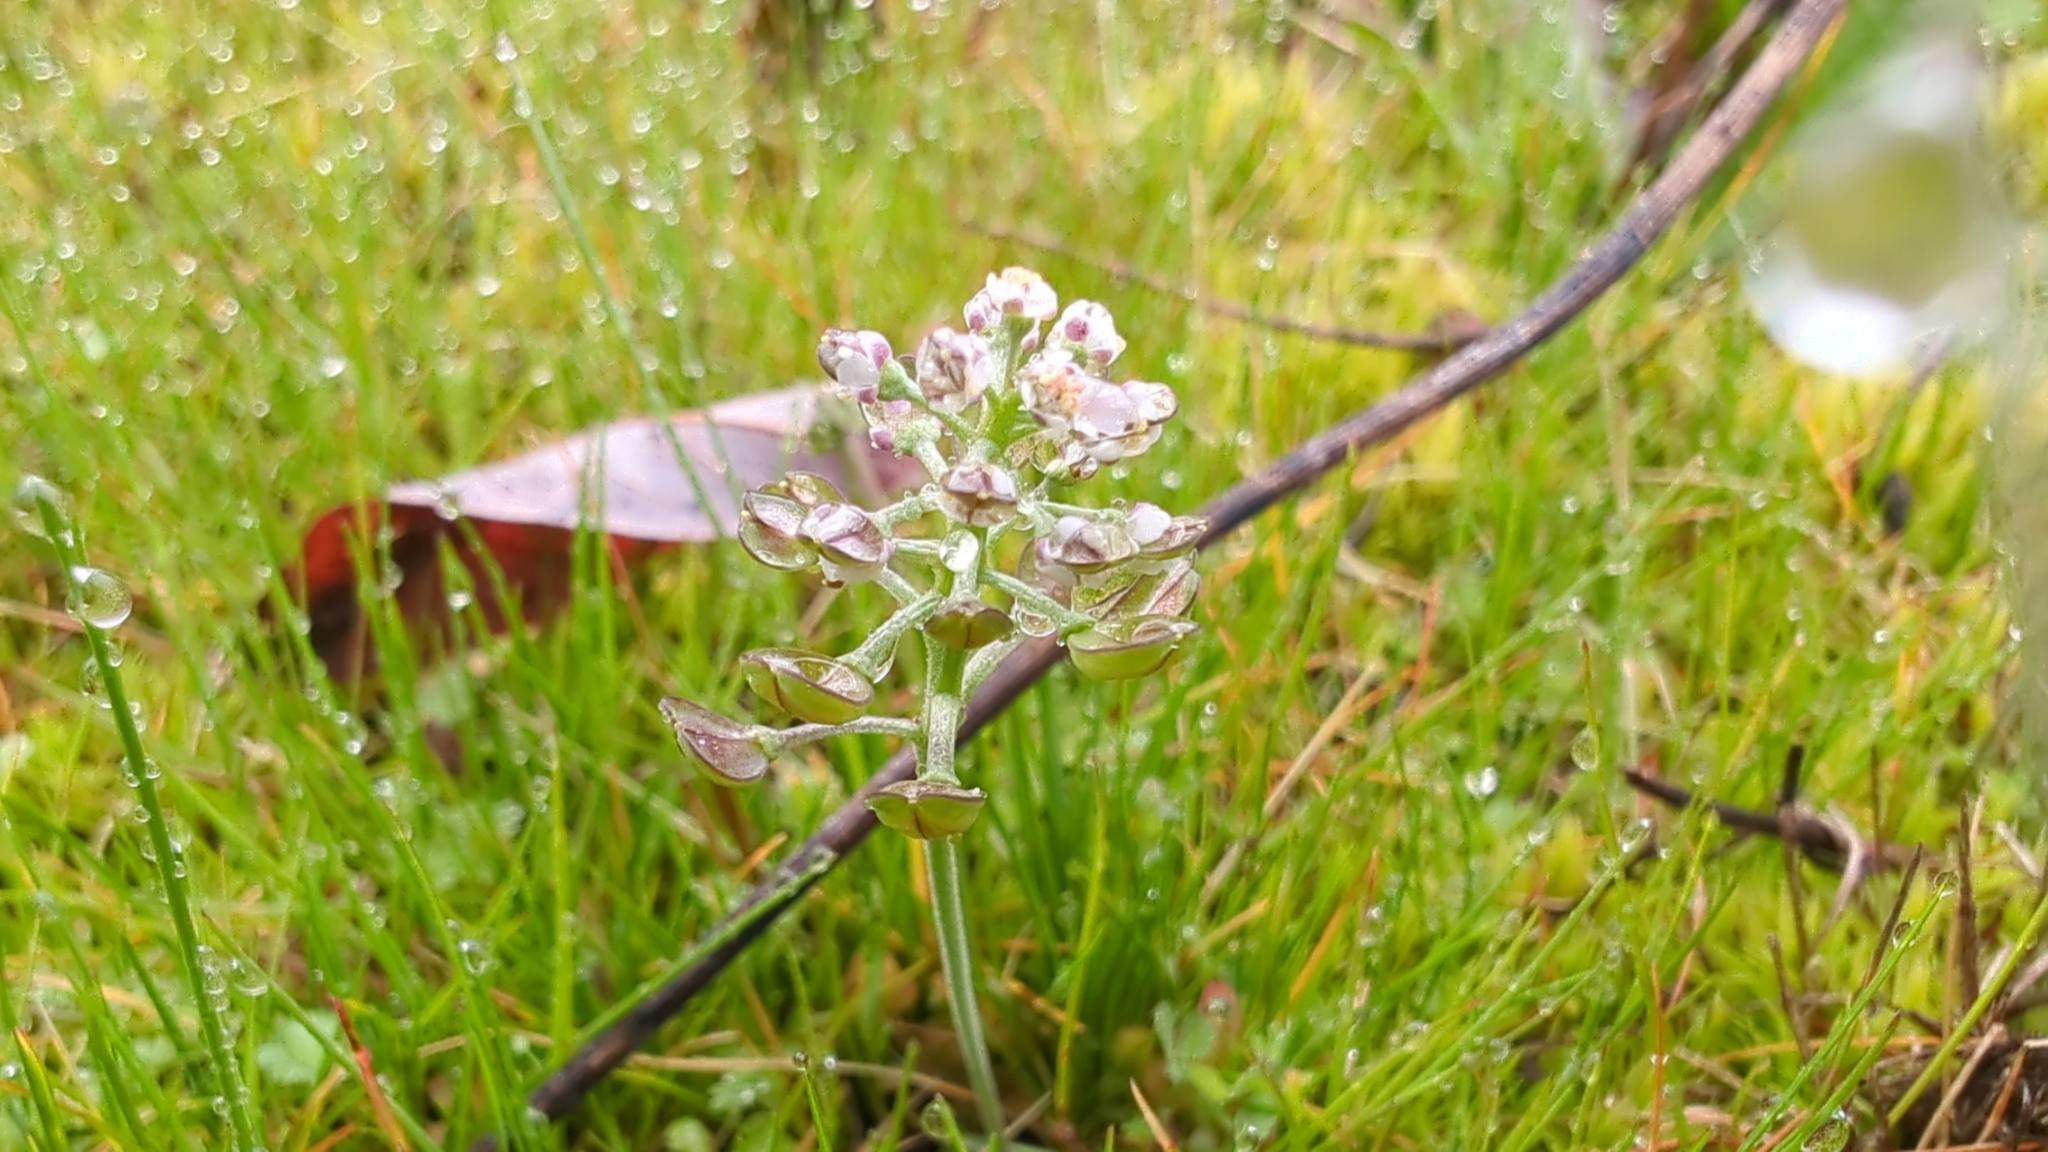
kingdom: Plantae
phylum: Tracheophyta
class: Magnoliopsida
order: Brassicales
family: Brassicaceae
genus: Teesdalia
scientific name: Teesdalia nudicaulis
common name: Shepherd's cress
